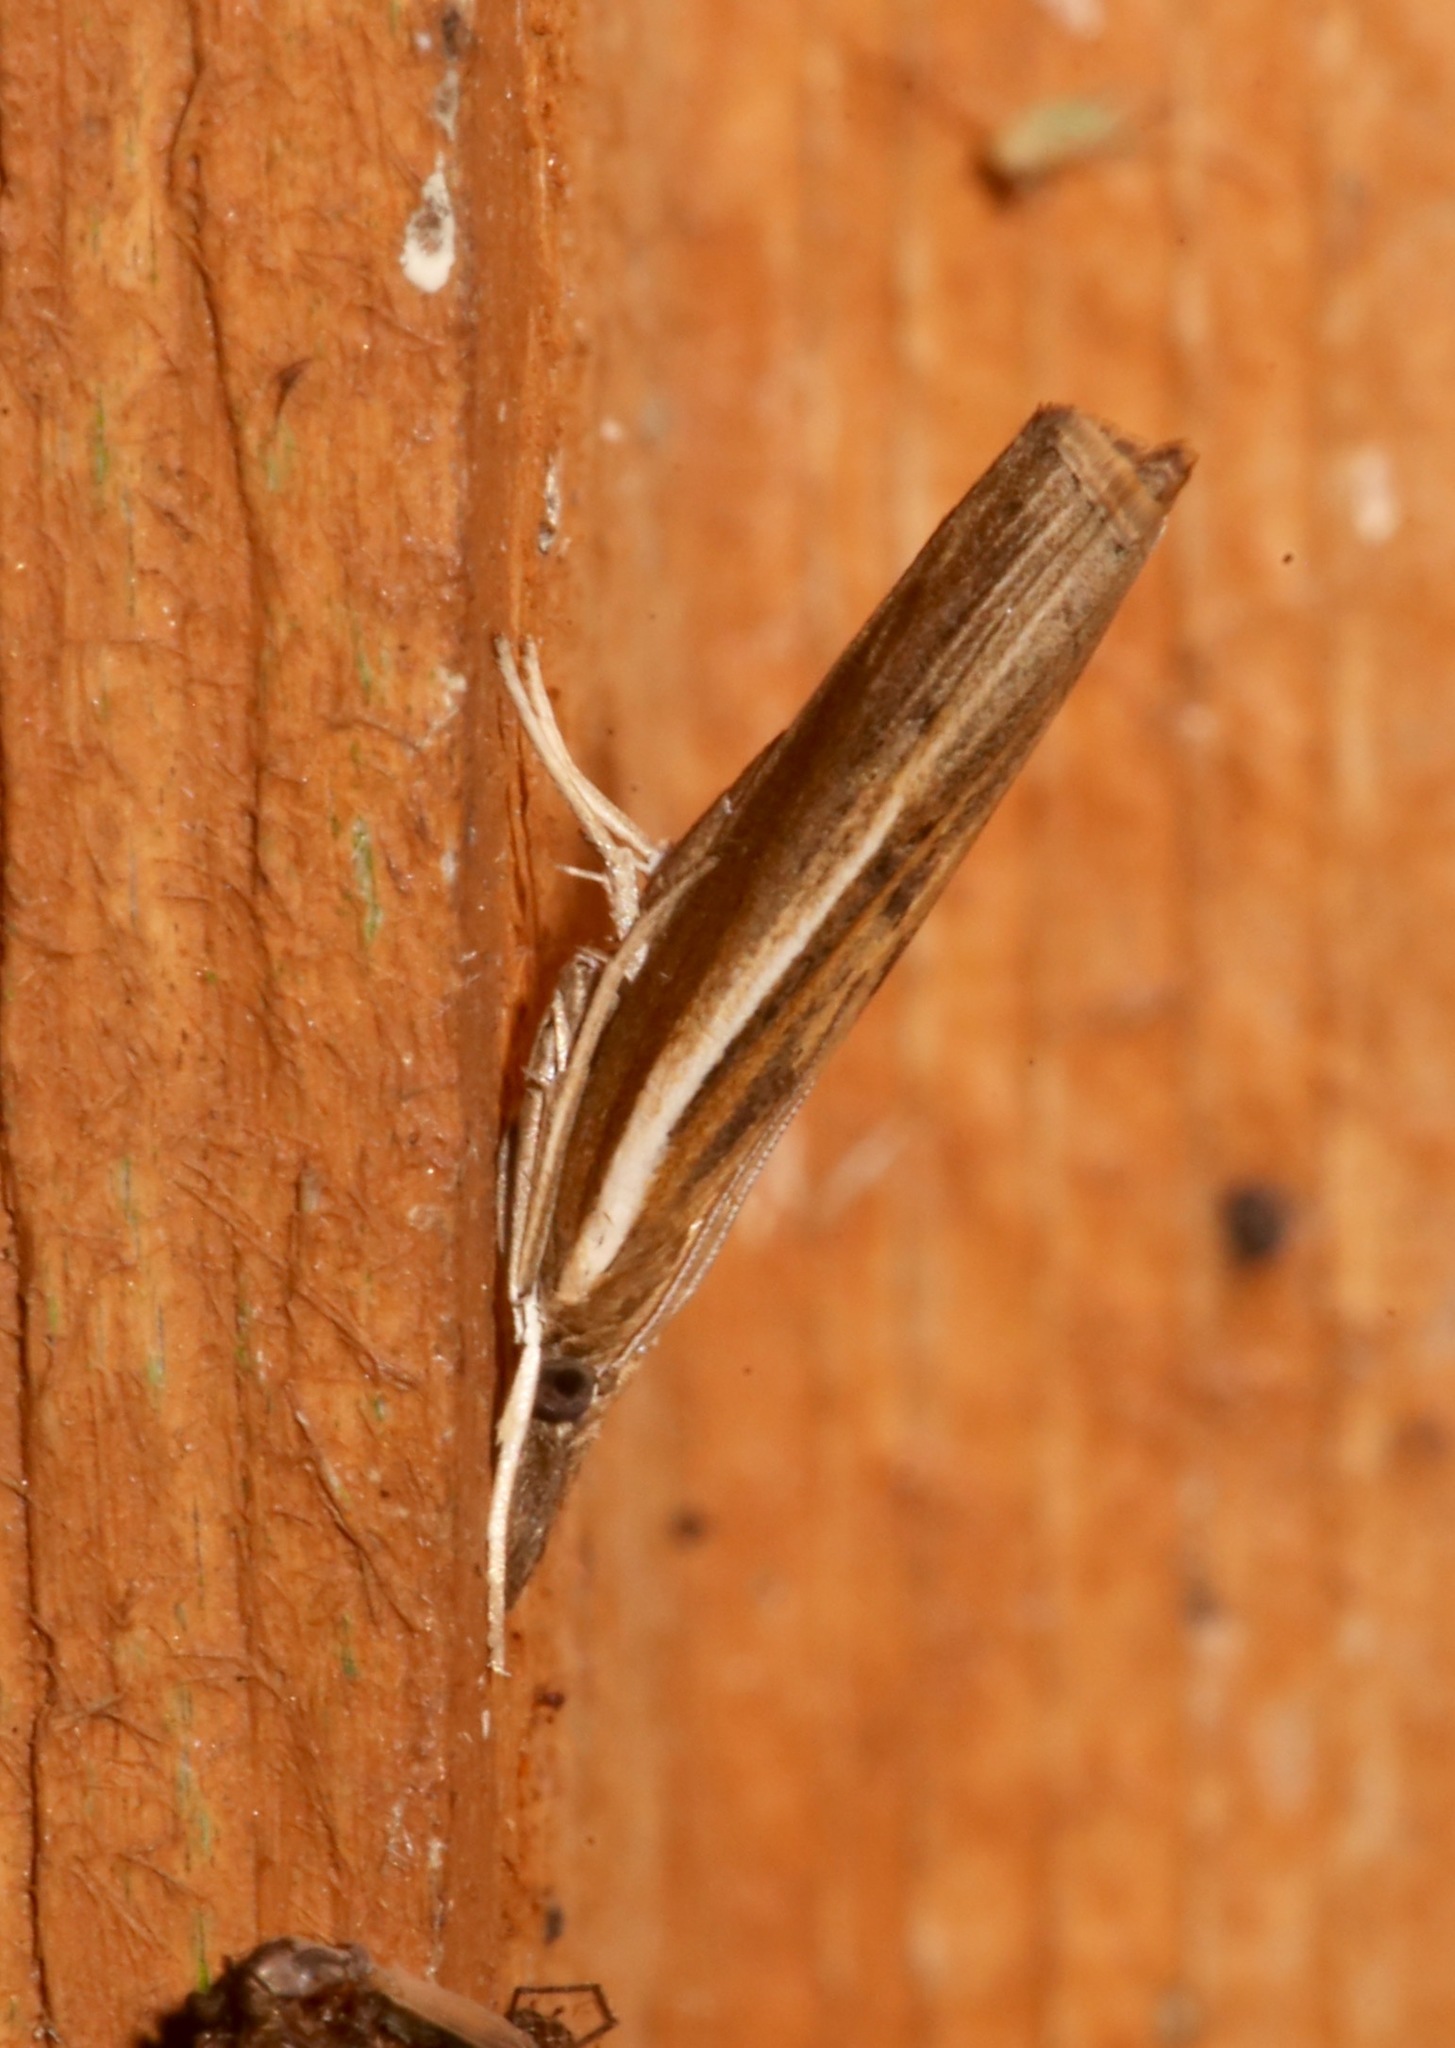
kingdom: Animalia
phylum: Arthropoda
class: Insecta
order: Lepidoptera
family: Crambidae
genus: Fissicrambus
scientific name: Fissicrambus fissiradiellus
